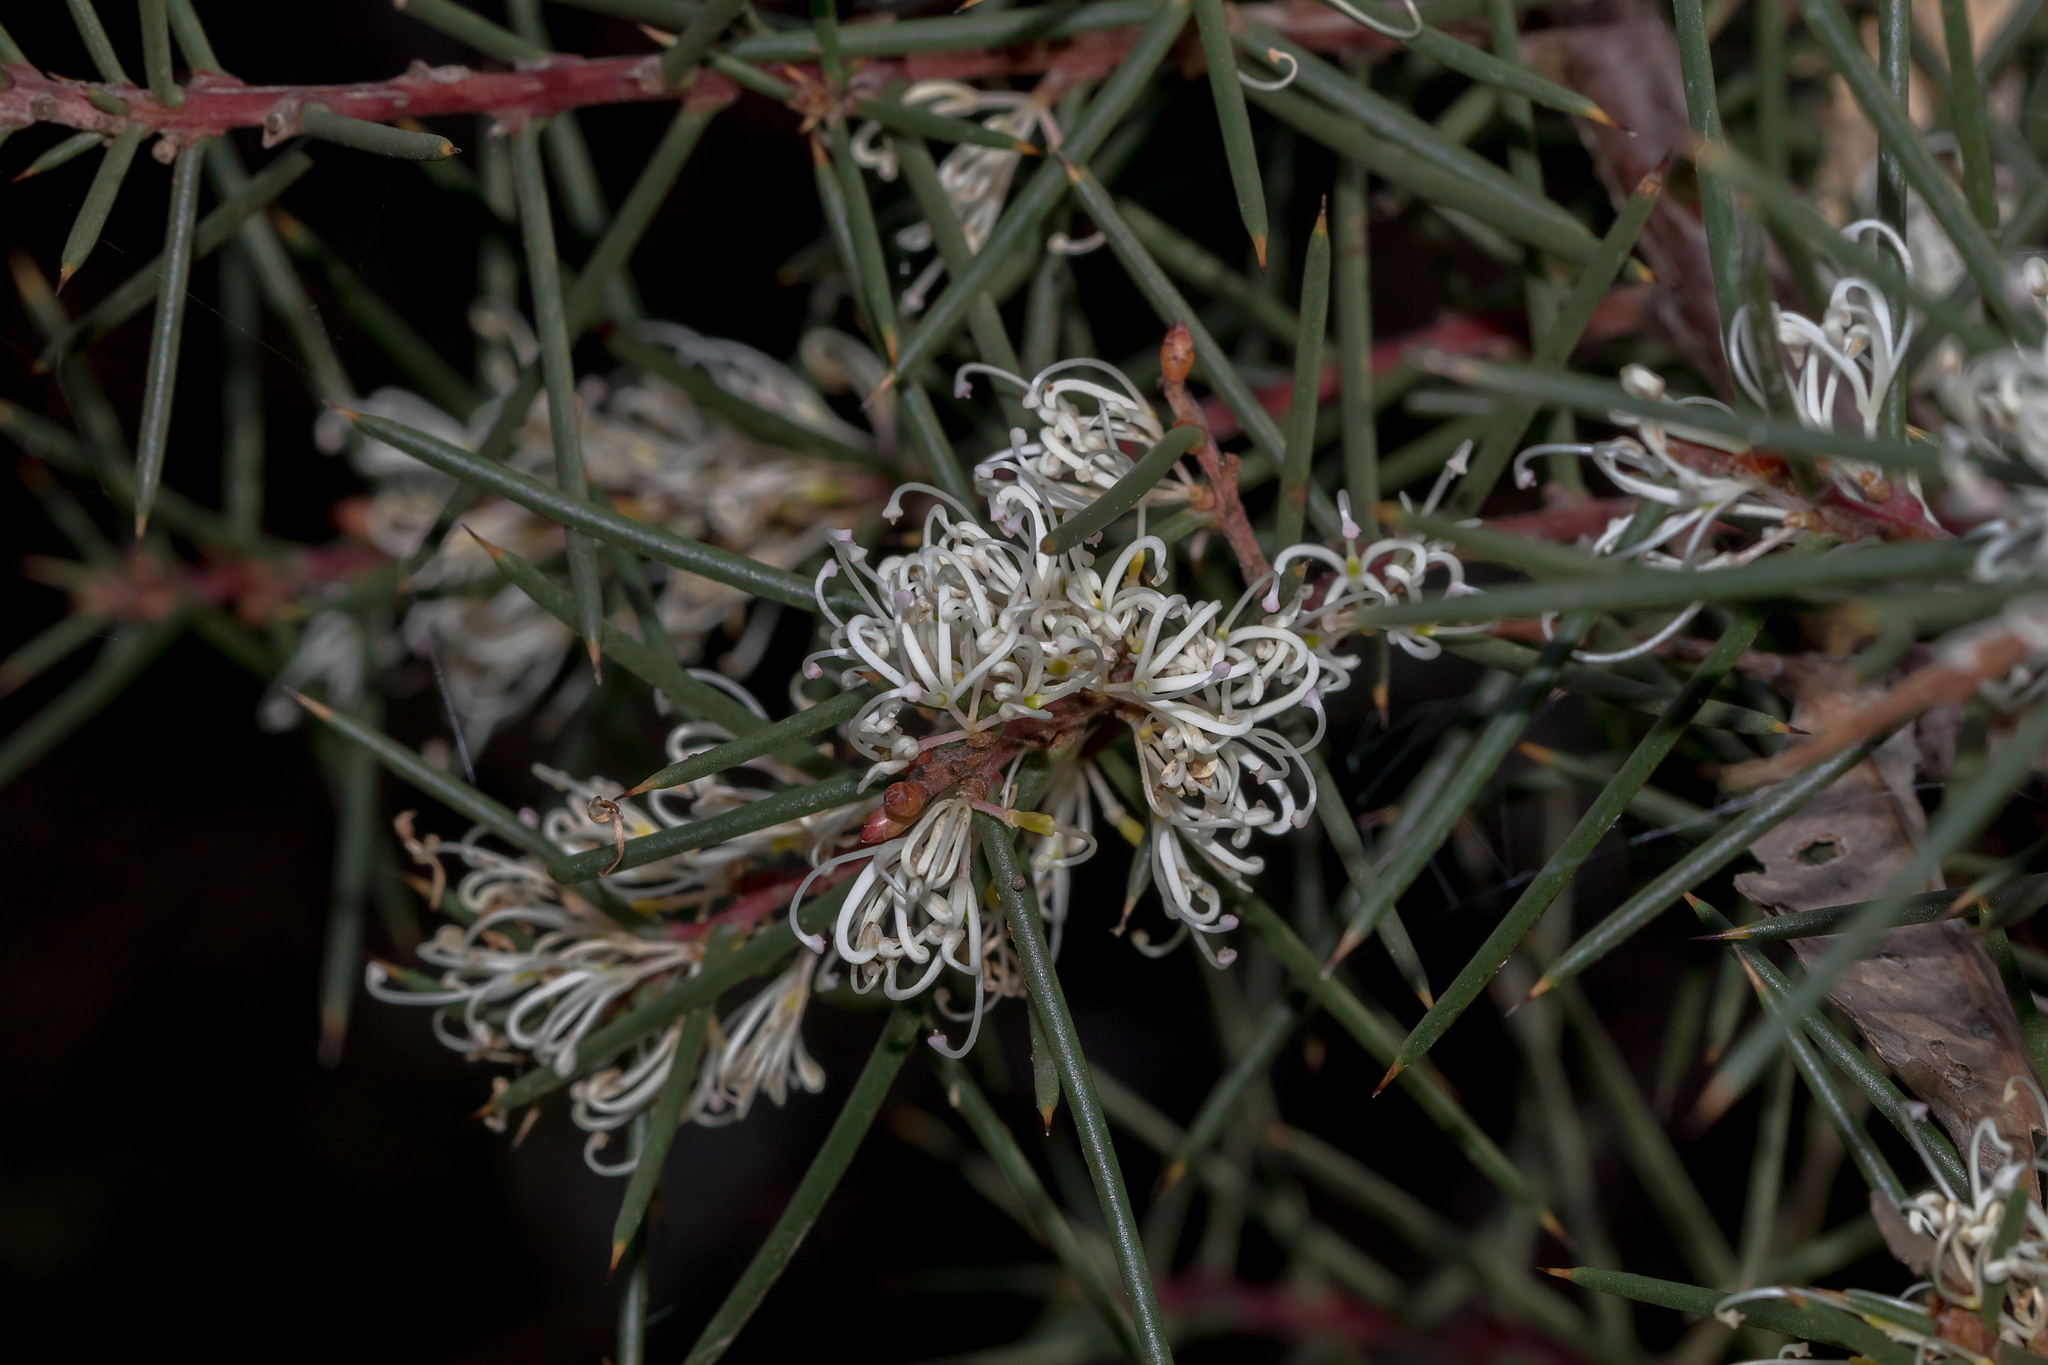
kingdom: Plantae
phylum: Tracheophyta
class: Magnoliopsida
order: Proteales
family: Proteaceae
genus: Hakea
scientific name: Hakea decurrens
